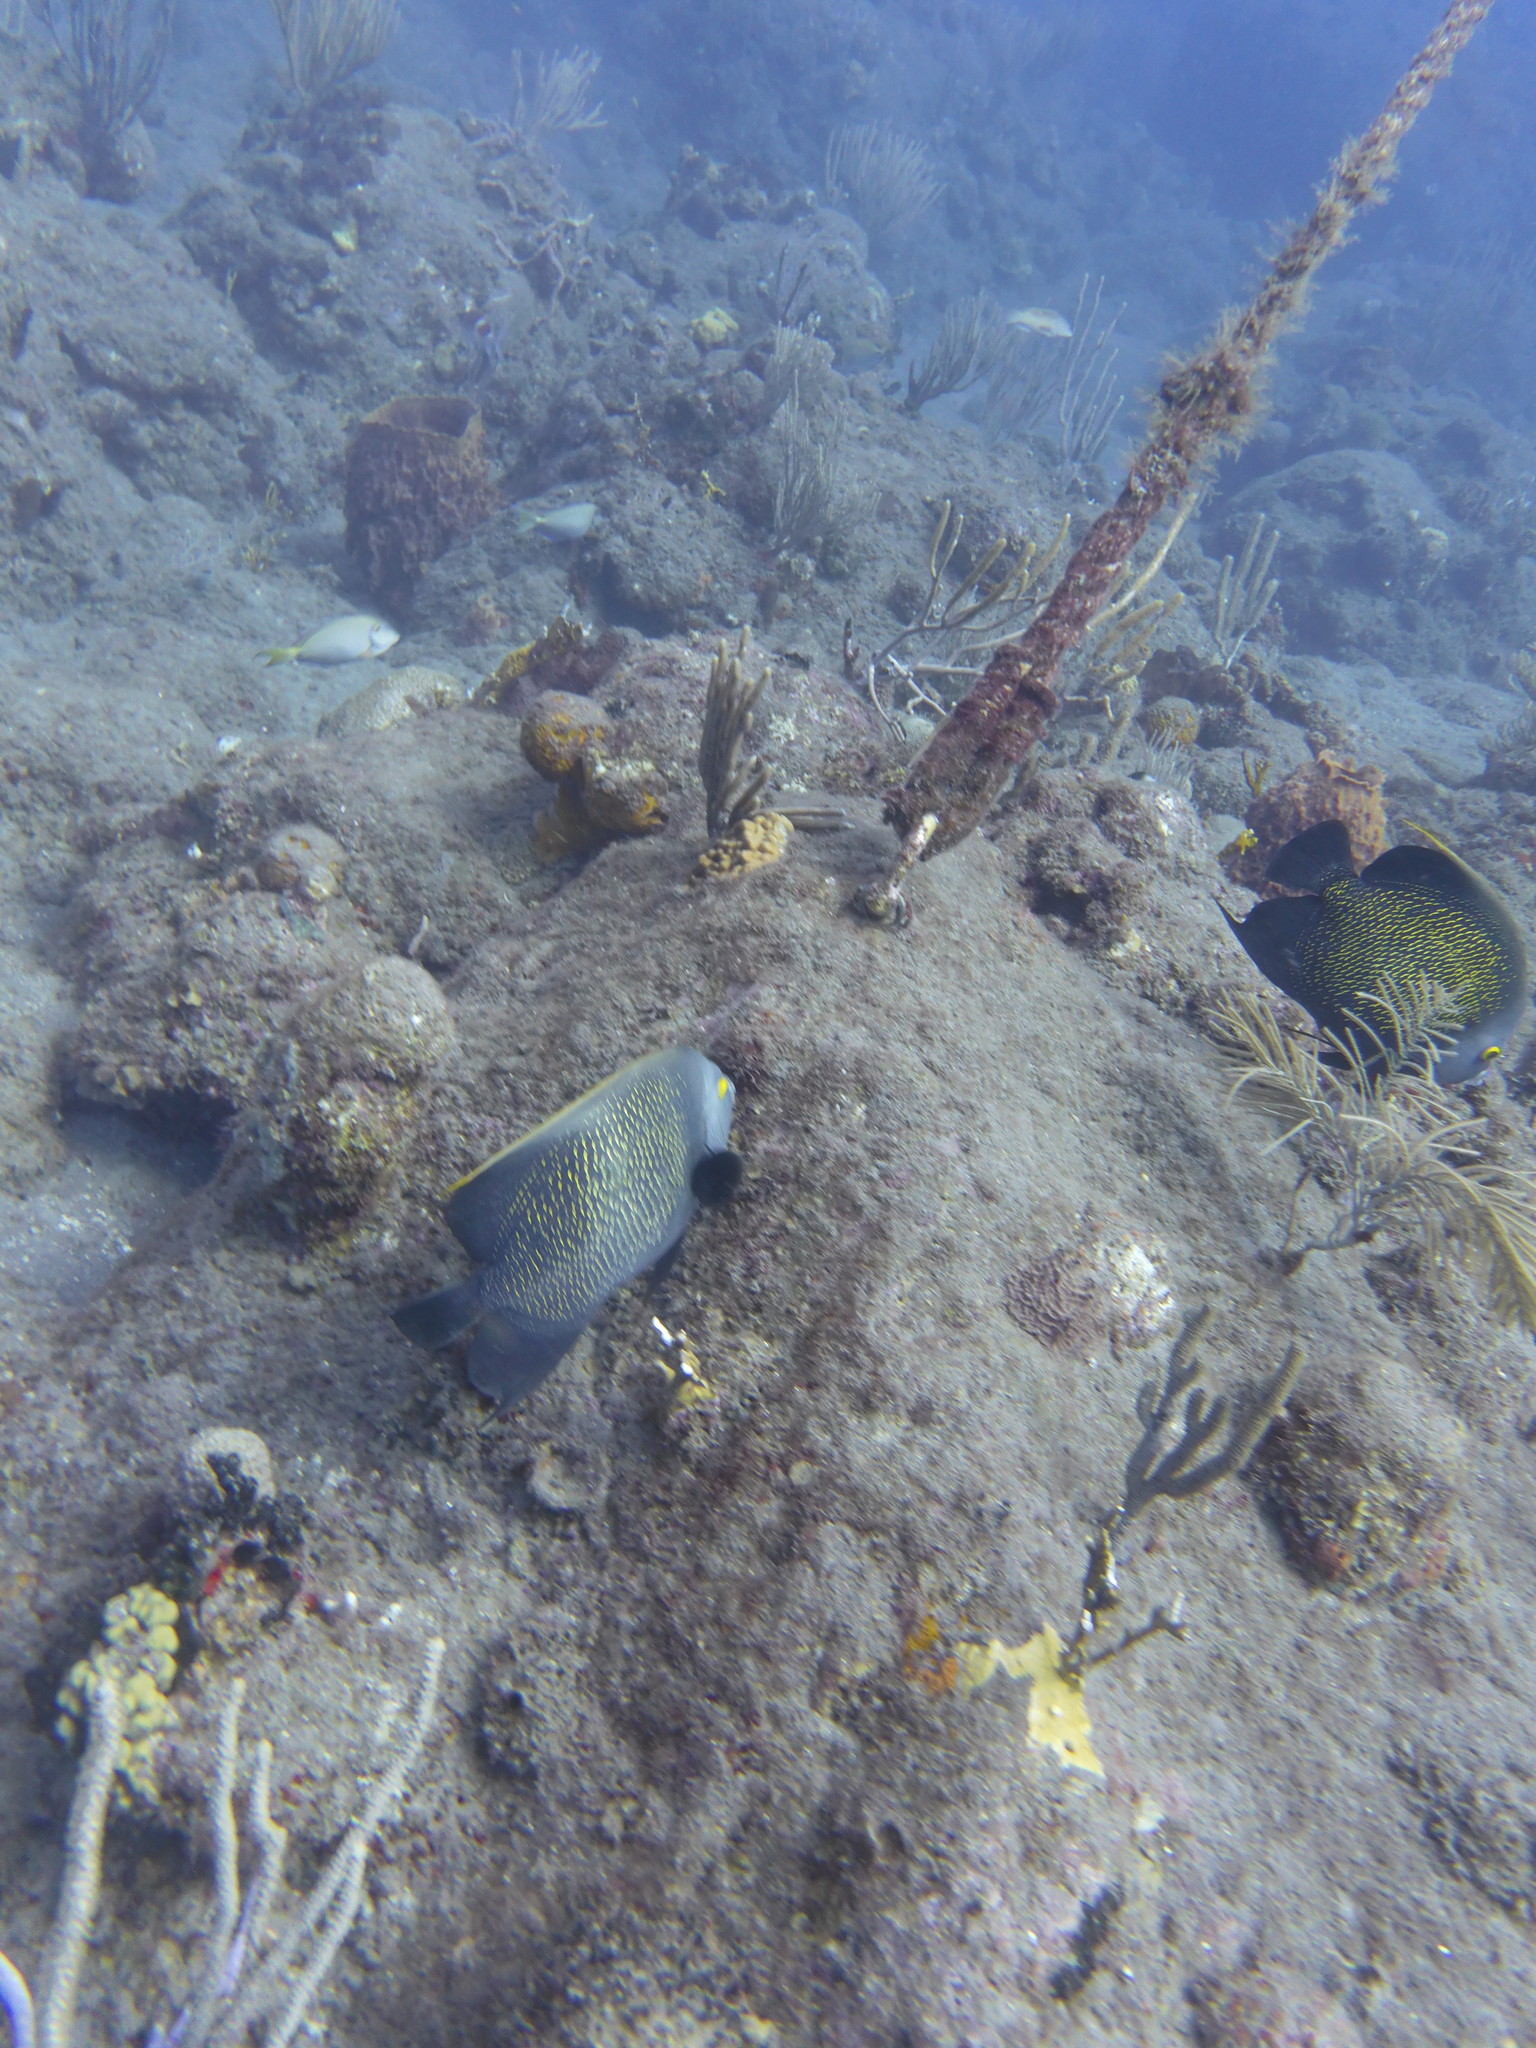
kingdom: Animalia
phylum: Chordata
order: Perciformes
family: Pomacanthidae
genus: Pomacanthus
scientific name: Pomacanthus paru
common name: French angelfish
